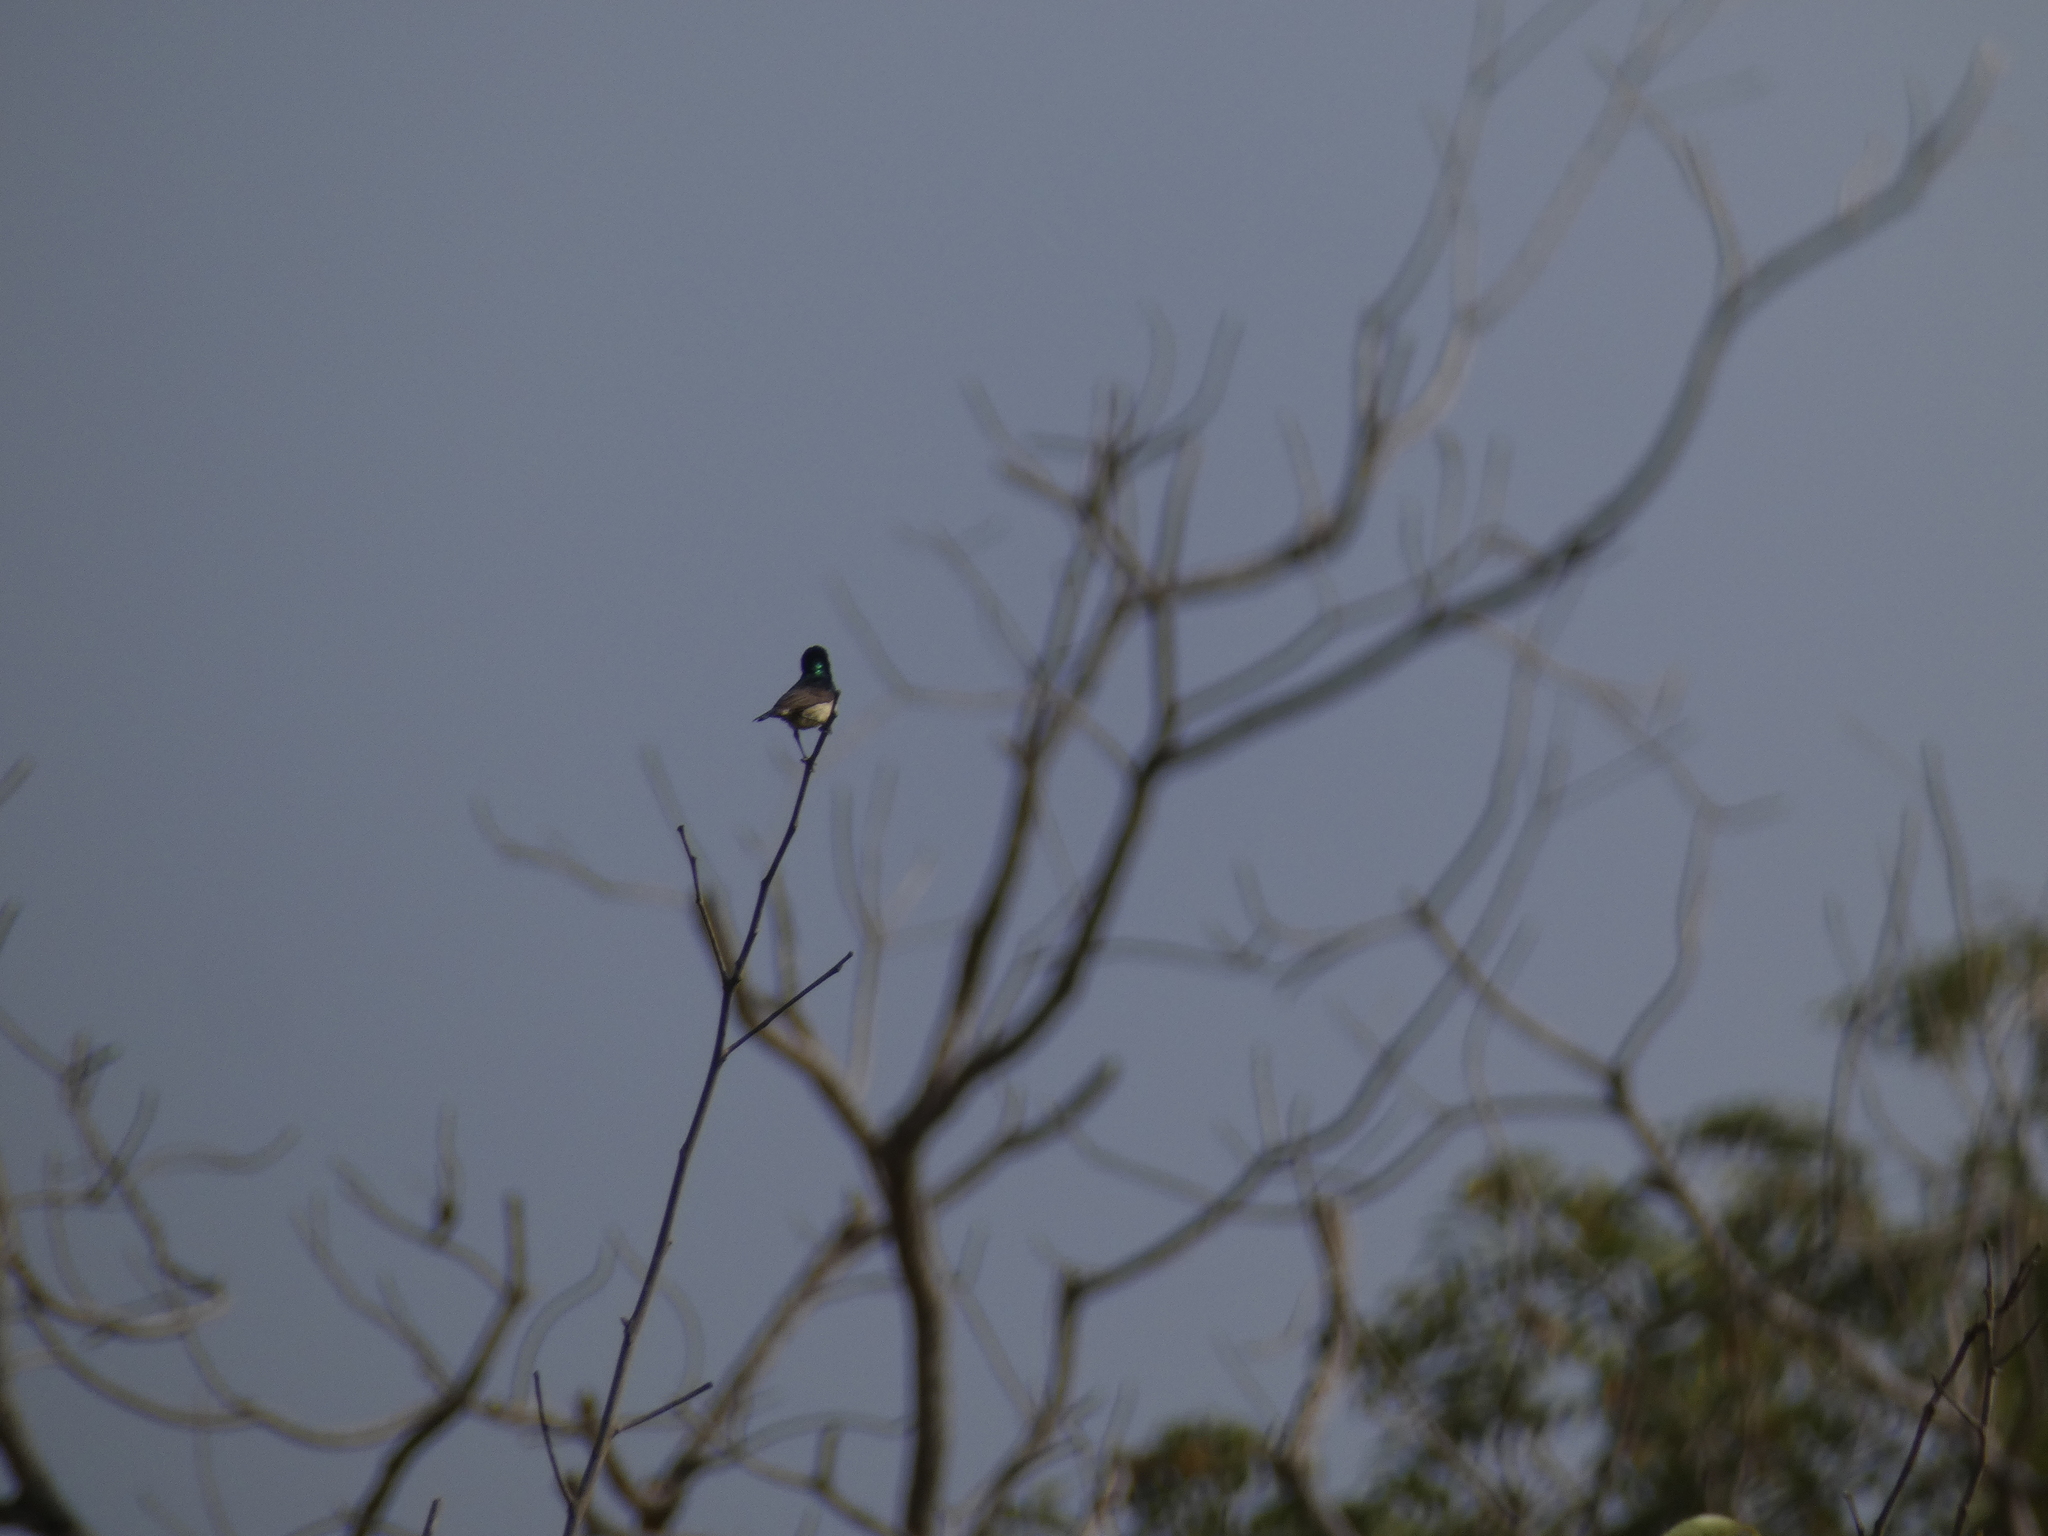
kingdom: Animalia
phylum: Chordata
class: Aves
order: Passeriformes
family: Nectariniidae
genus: Cinnyris
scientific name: Cinnyris venustus
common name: Variable sunbird
